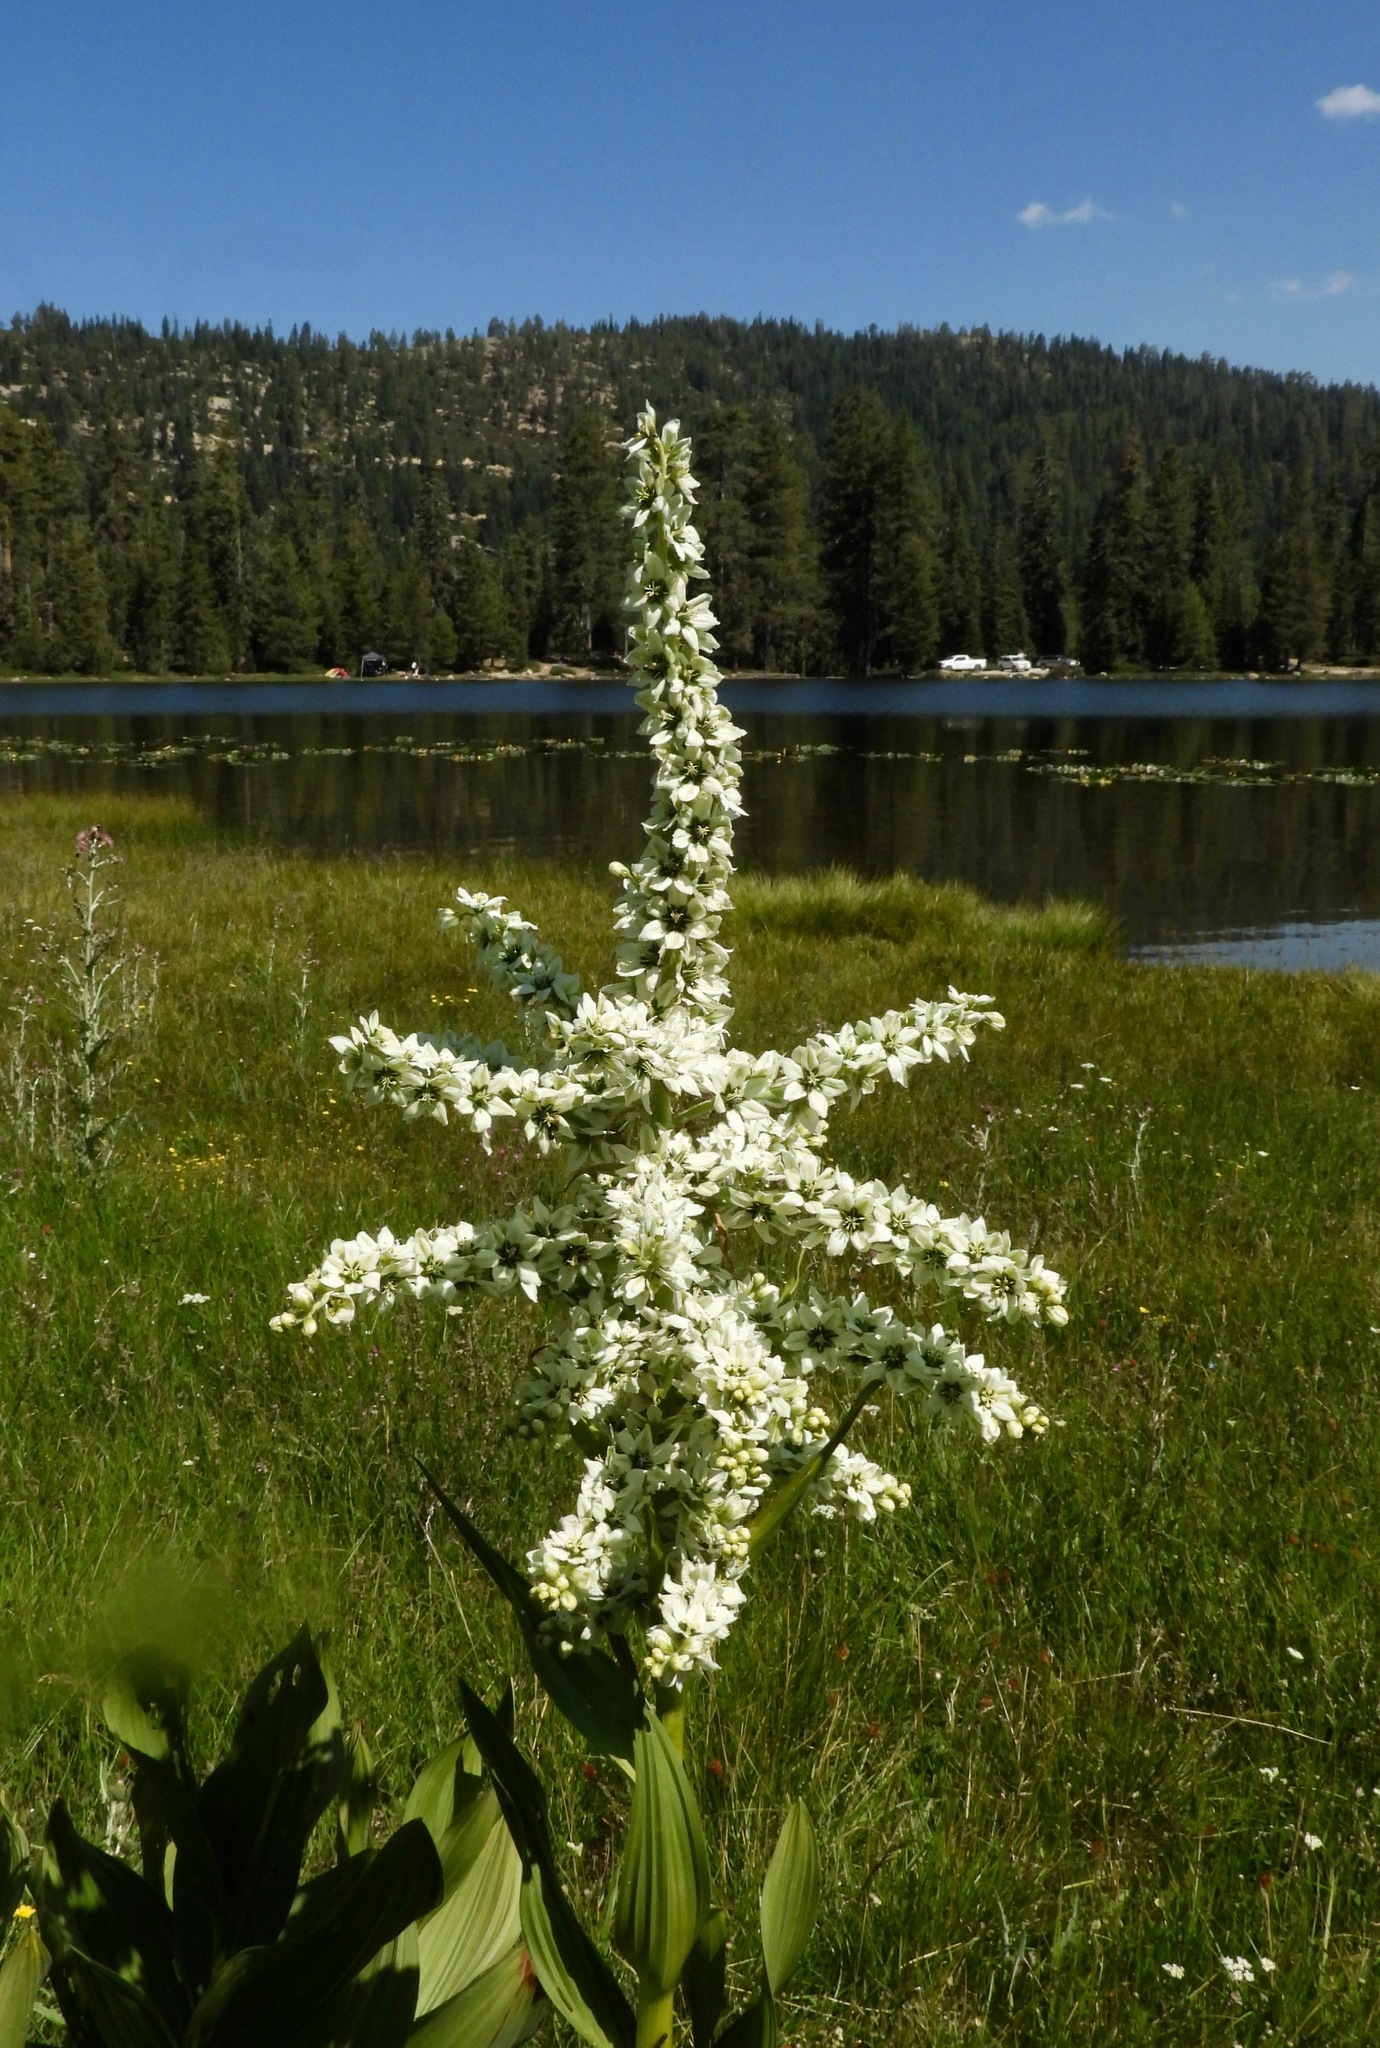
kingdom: Plantae
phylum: Tracheophyta
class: Liliopsida
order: Liliales
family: Melanthiaceae
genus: Veratrum
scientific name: Veratrum californicum
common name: California veratrum
